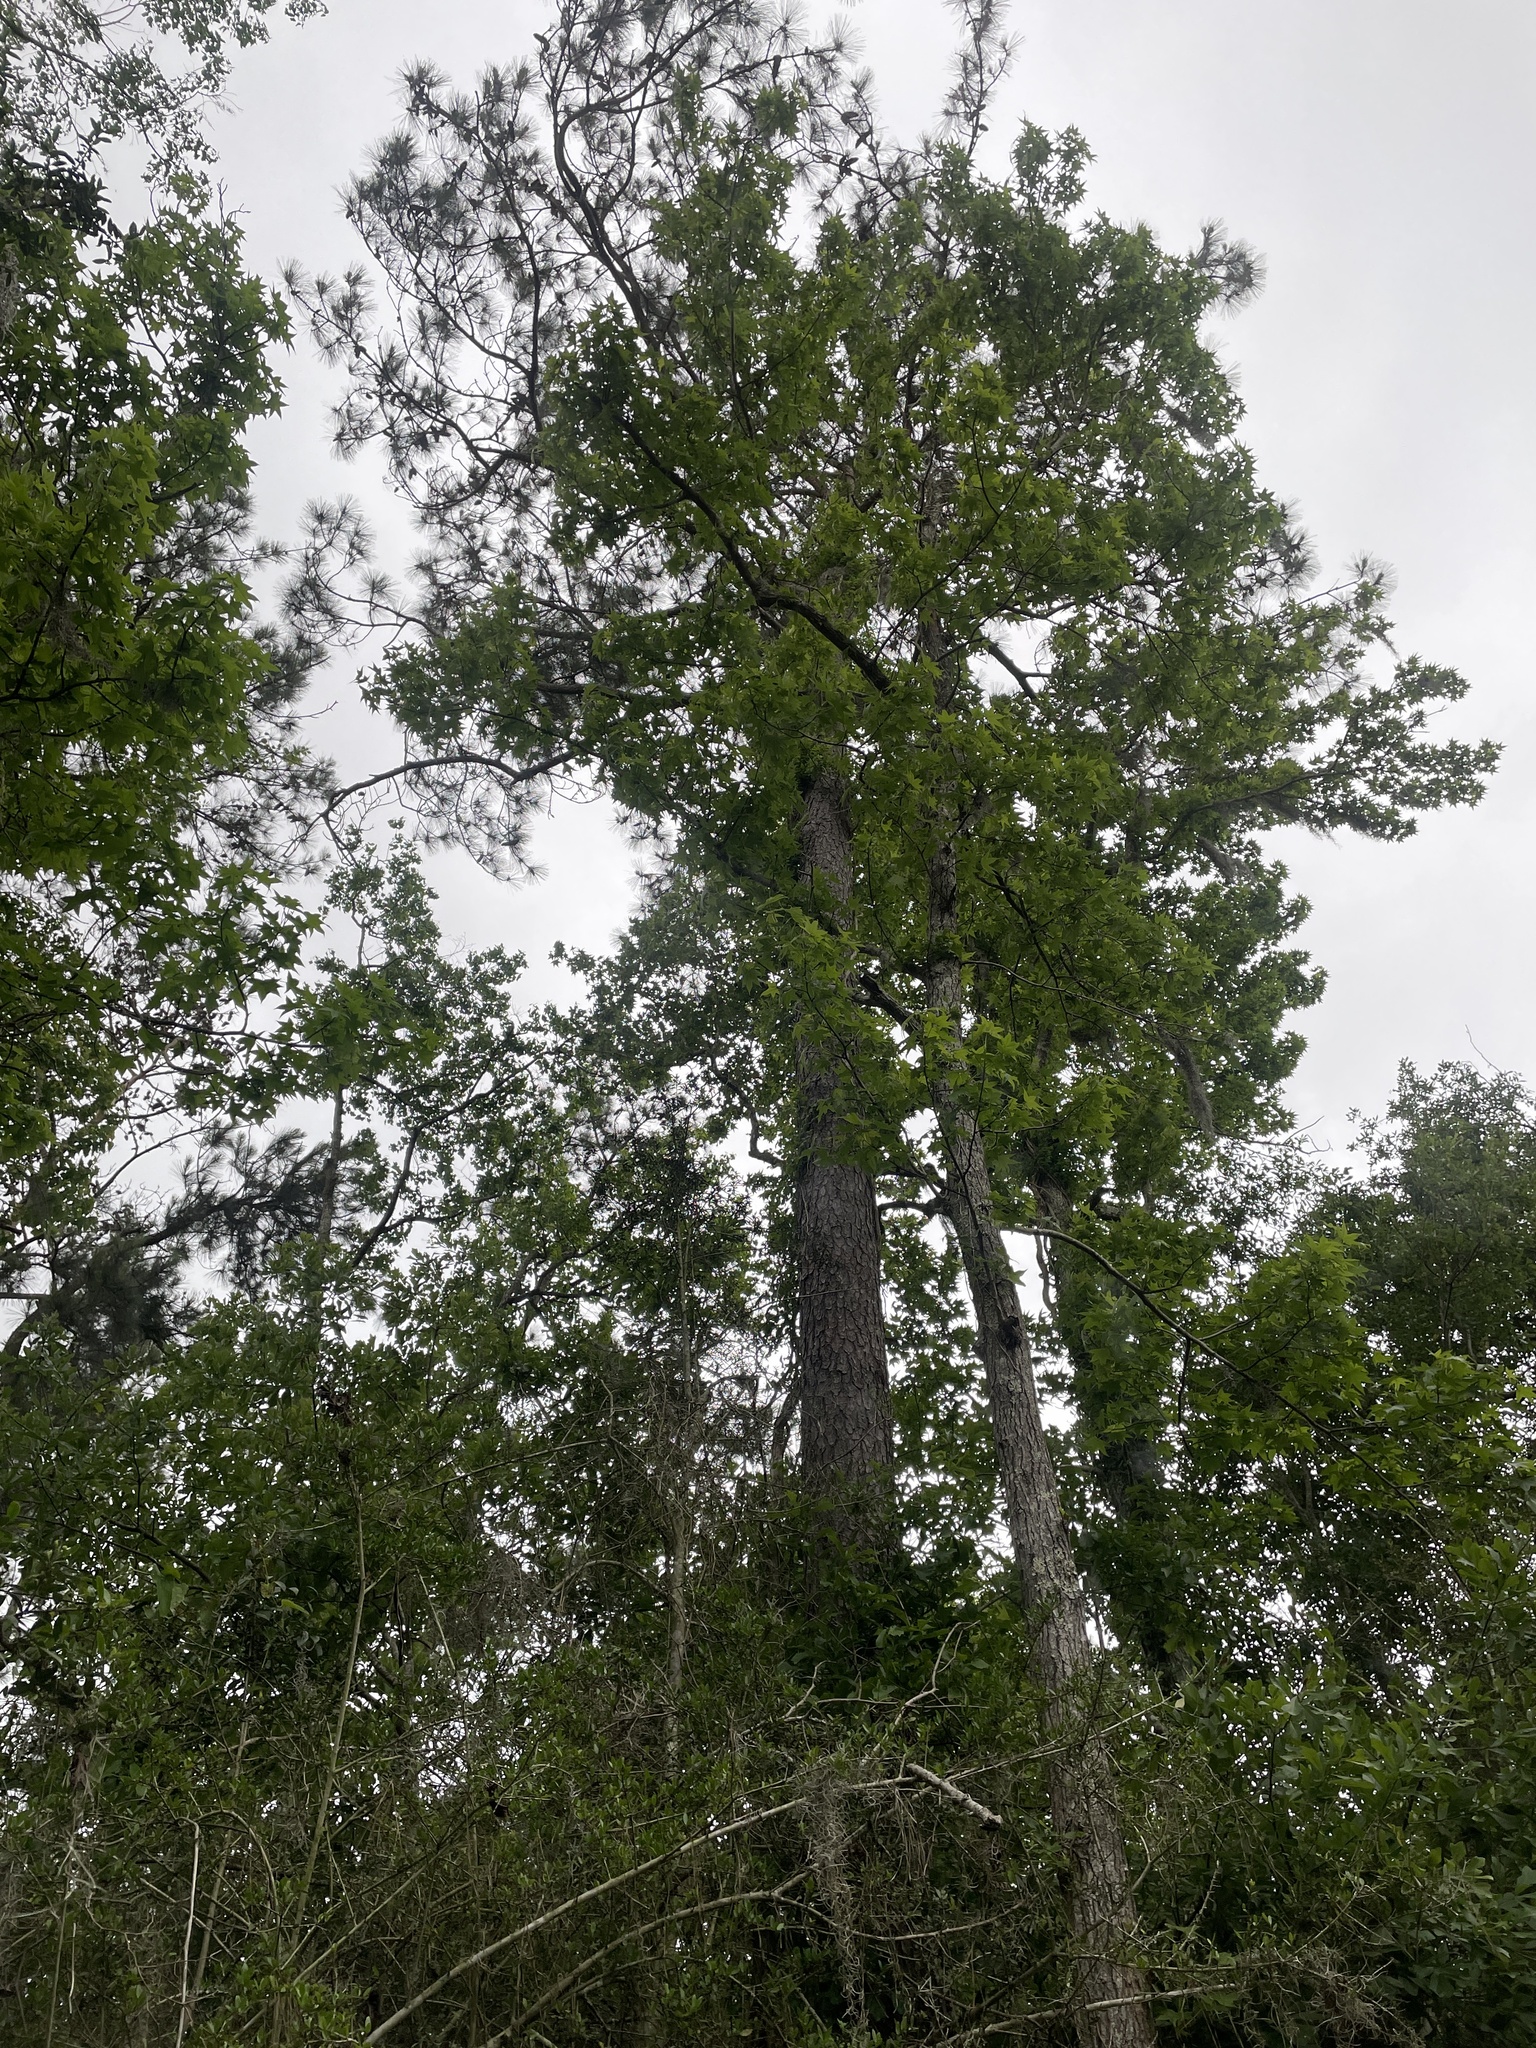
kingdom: Plantae
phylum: Tracheophyta
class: Pinopsida
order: Pinales
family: Pinaceae
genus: Pinus
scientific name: Pinus taeda
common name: Loblolly pine
